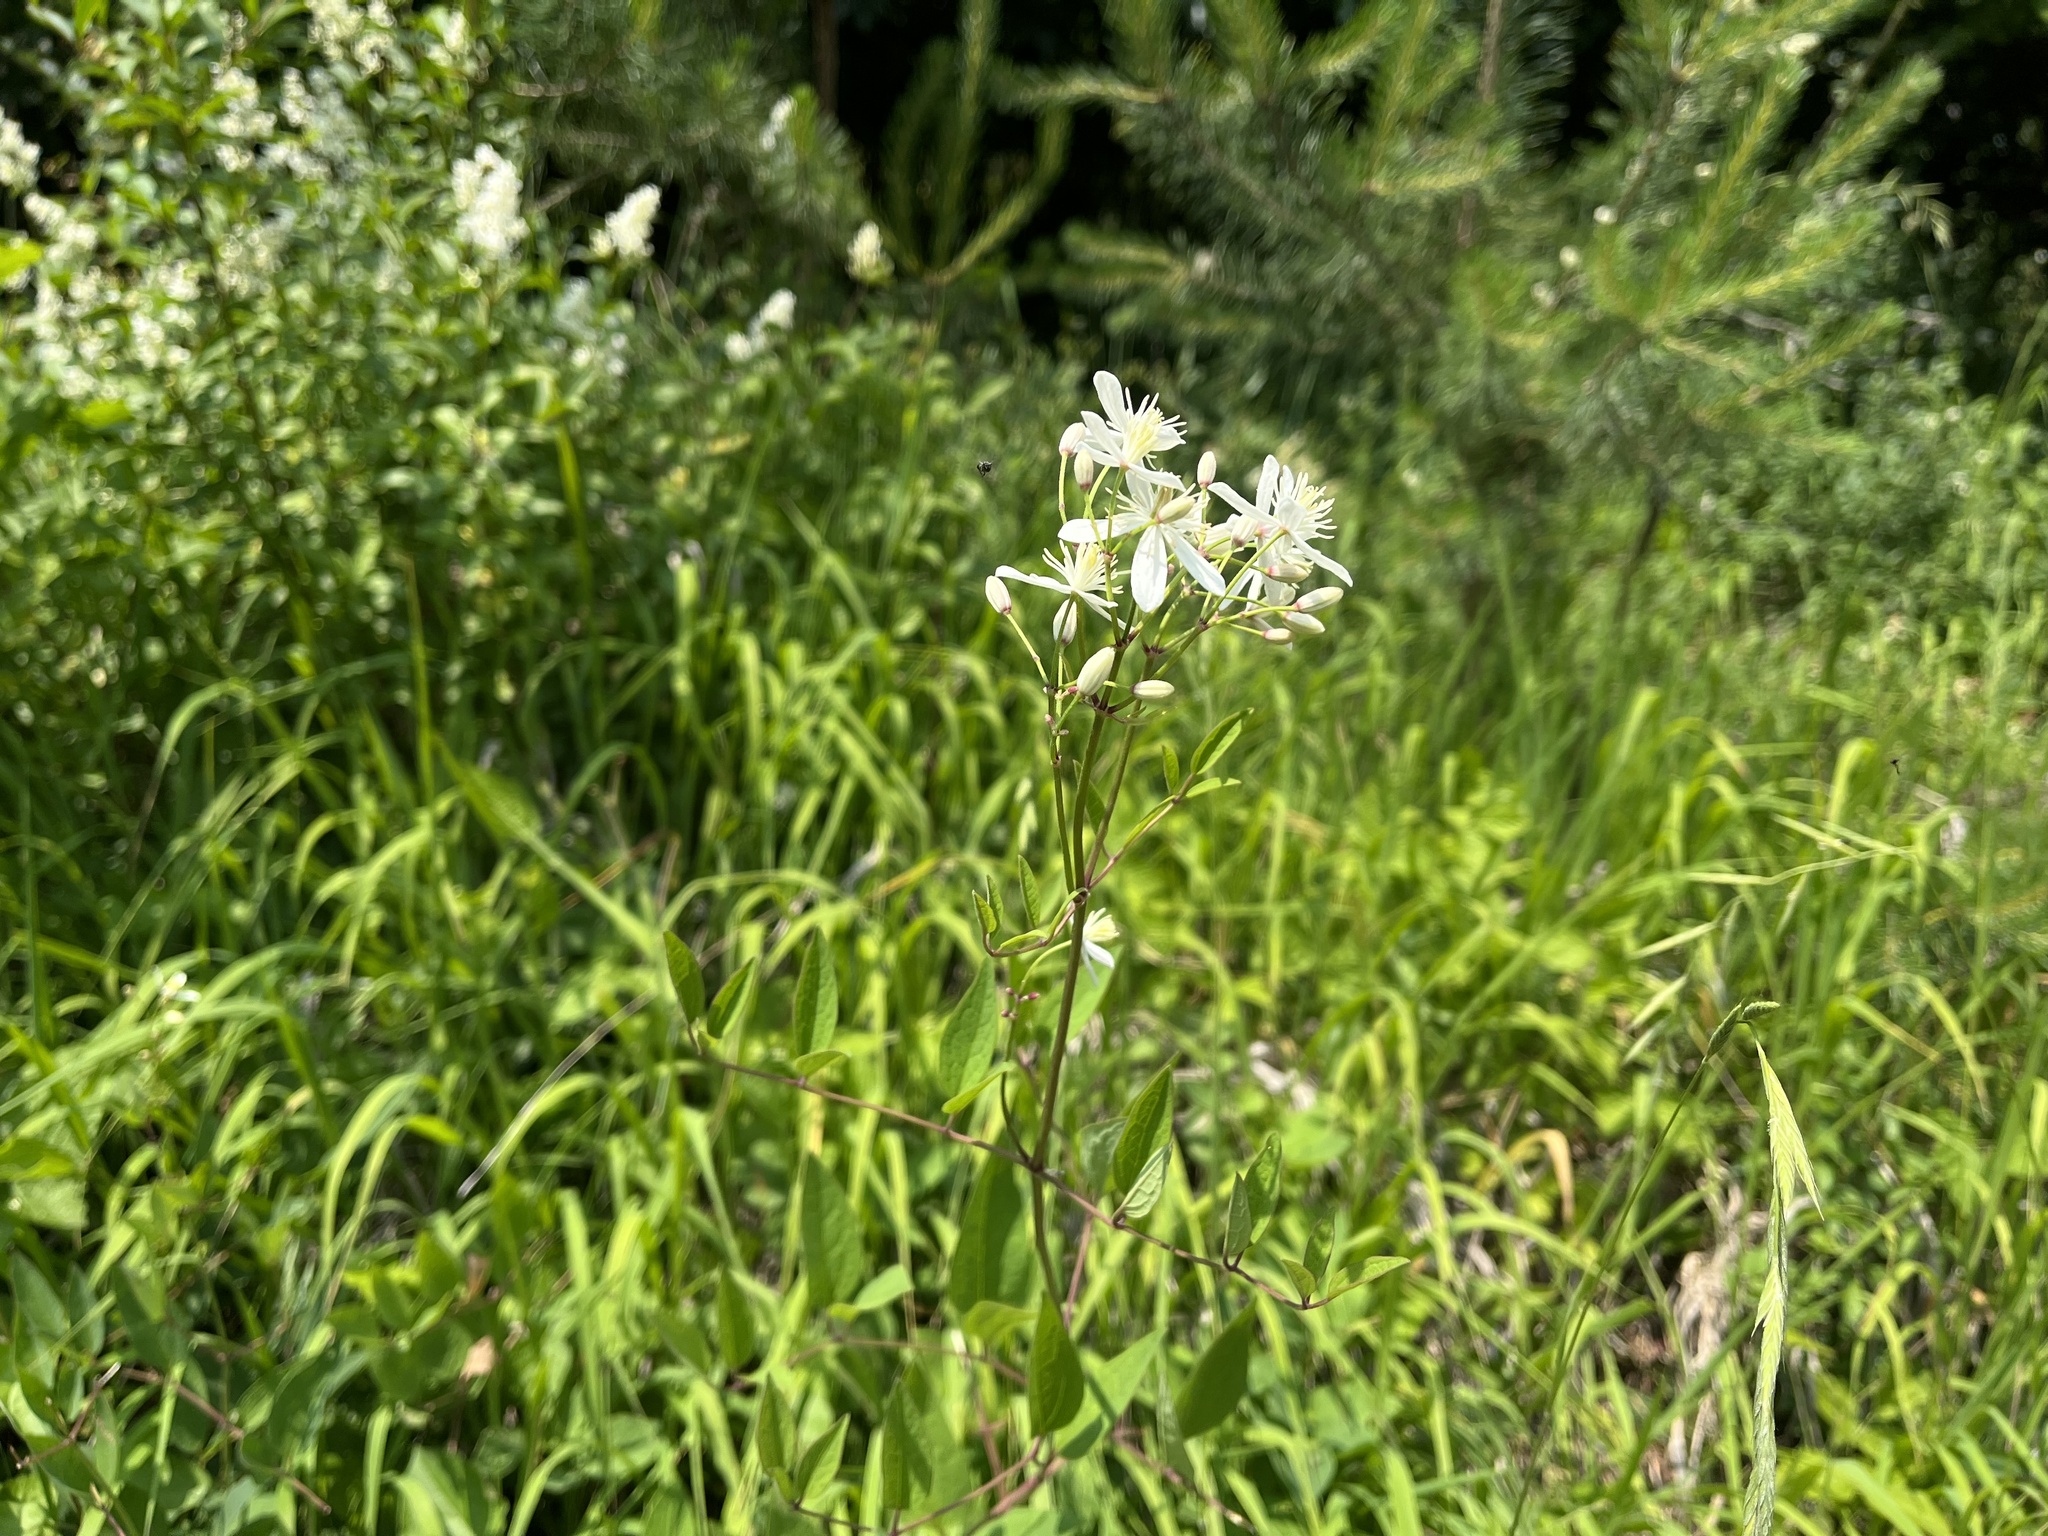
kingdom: Plantae
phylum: Tracheophyta
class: Magnoliopsida
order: Ranunculales
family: Ranunculaceae
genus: Clematis
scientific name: Clematis recta
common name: Ground clematis
